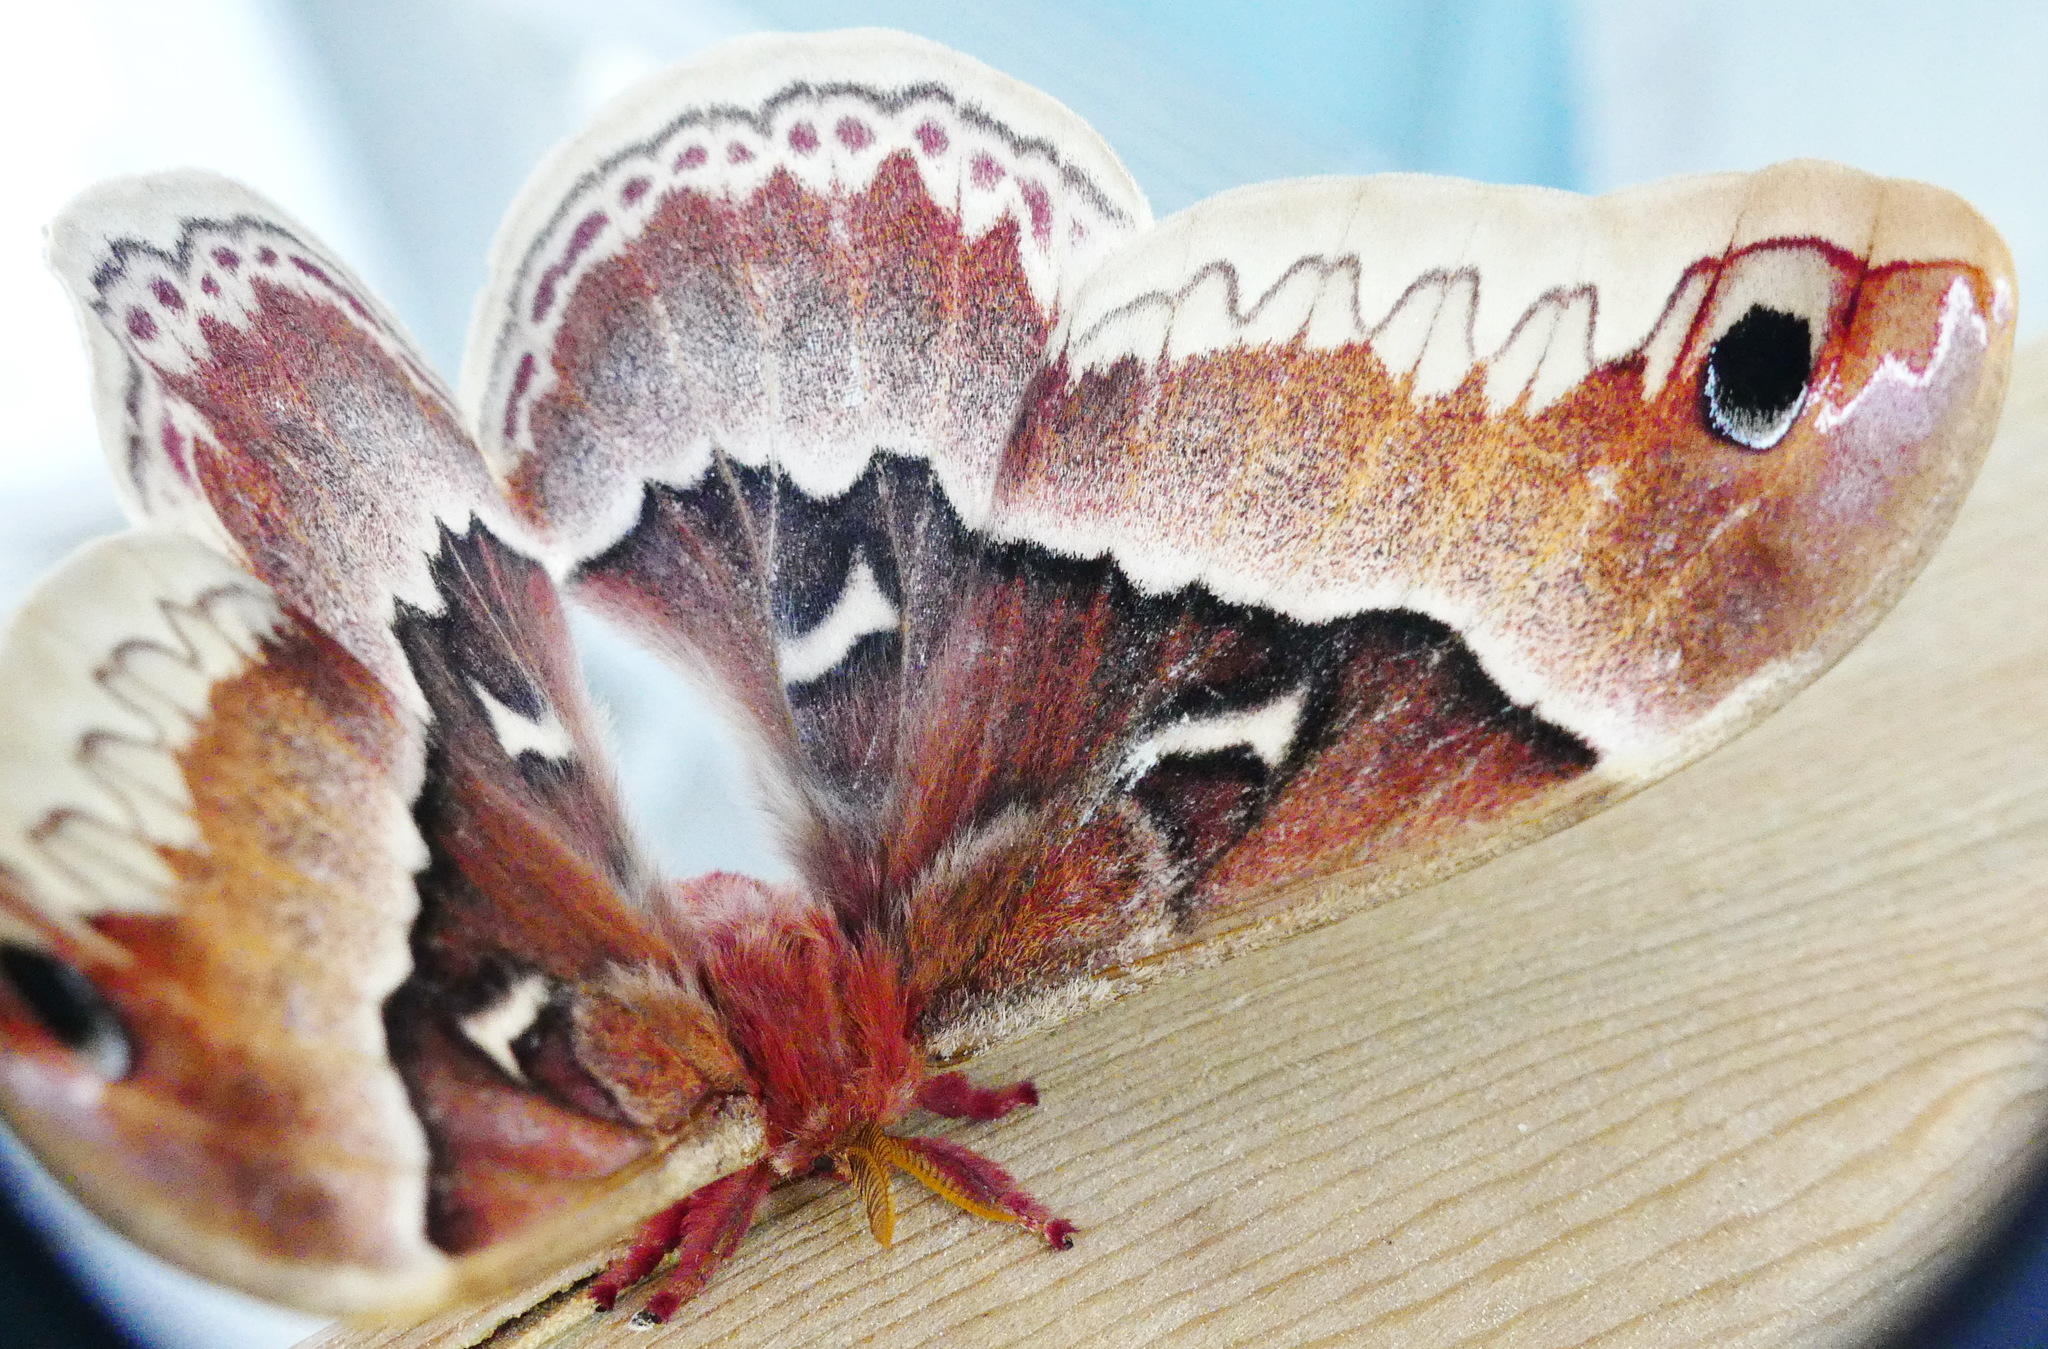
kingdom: Animalia
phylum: Arthropoda
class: Insecta
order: Lepidoptera
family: Saturniidae
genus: Callosamia
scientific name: Callosamia promethea
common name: Promethea silkmoth
